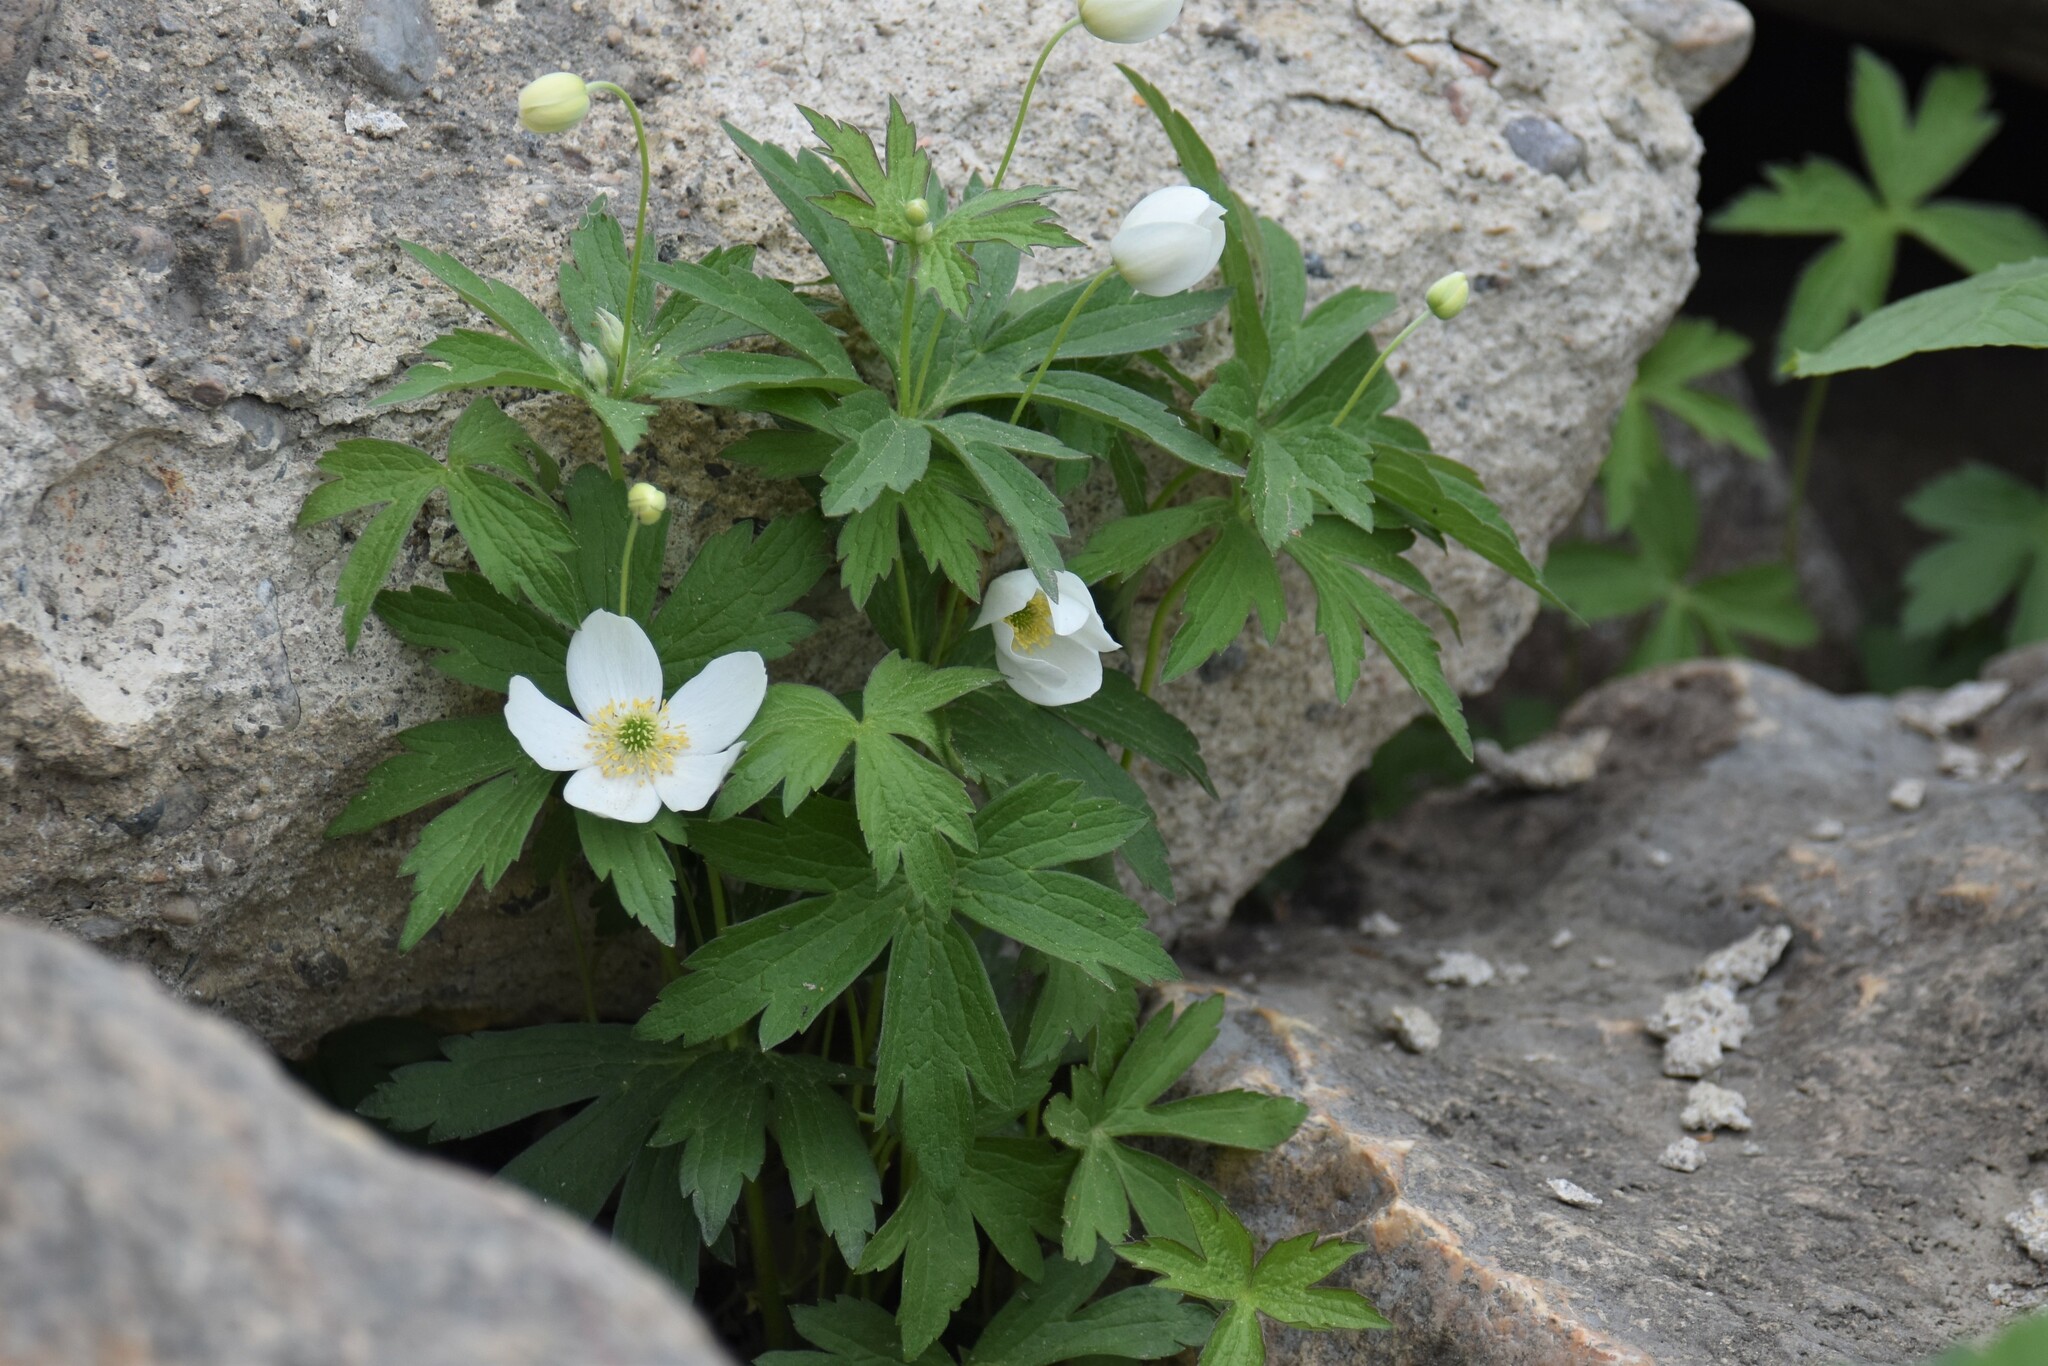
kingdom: Plantae
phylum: Tracheophyta
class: Magnoliopsida
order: Ranunculales
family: Ranunculaceae
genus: Anemonastrum
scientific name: Anemonastrum canadense
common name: Canada anemone
